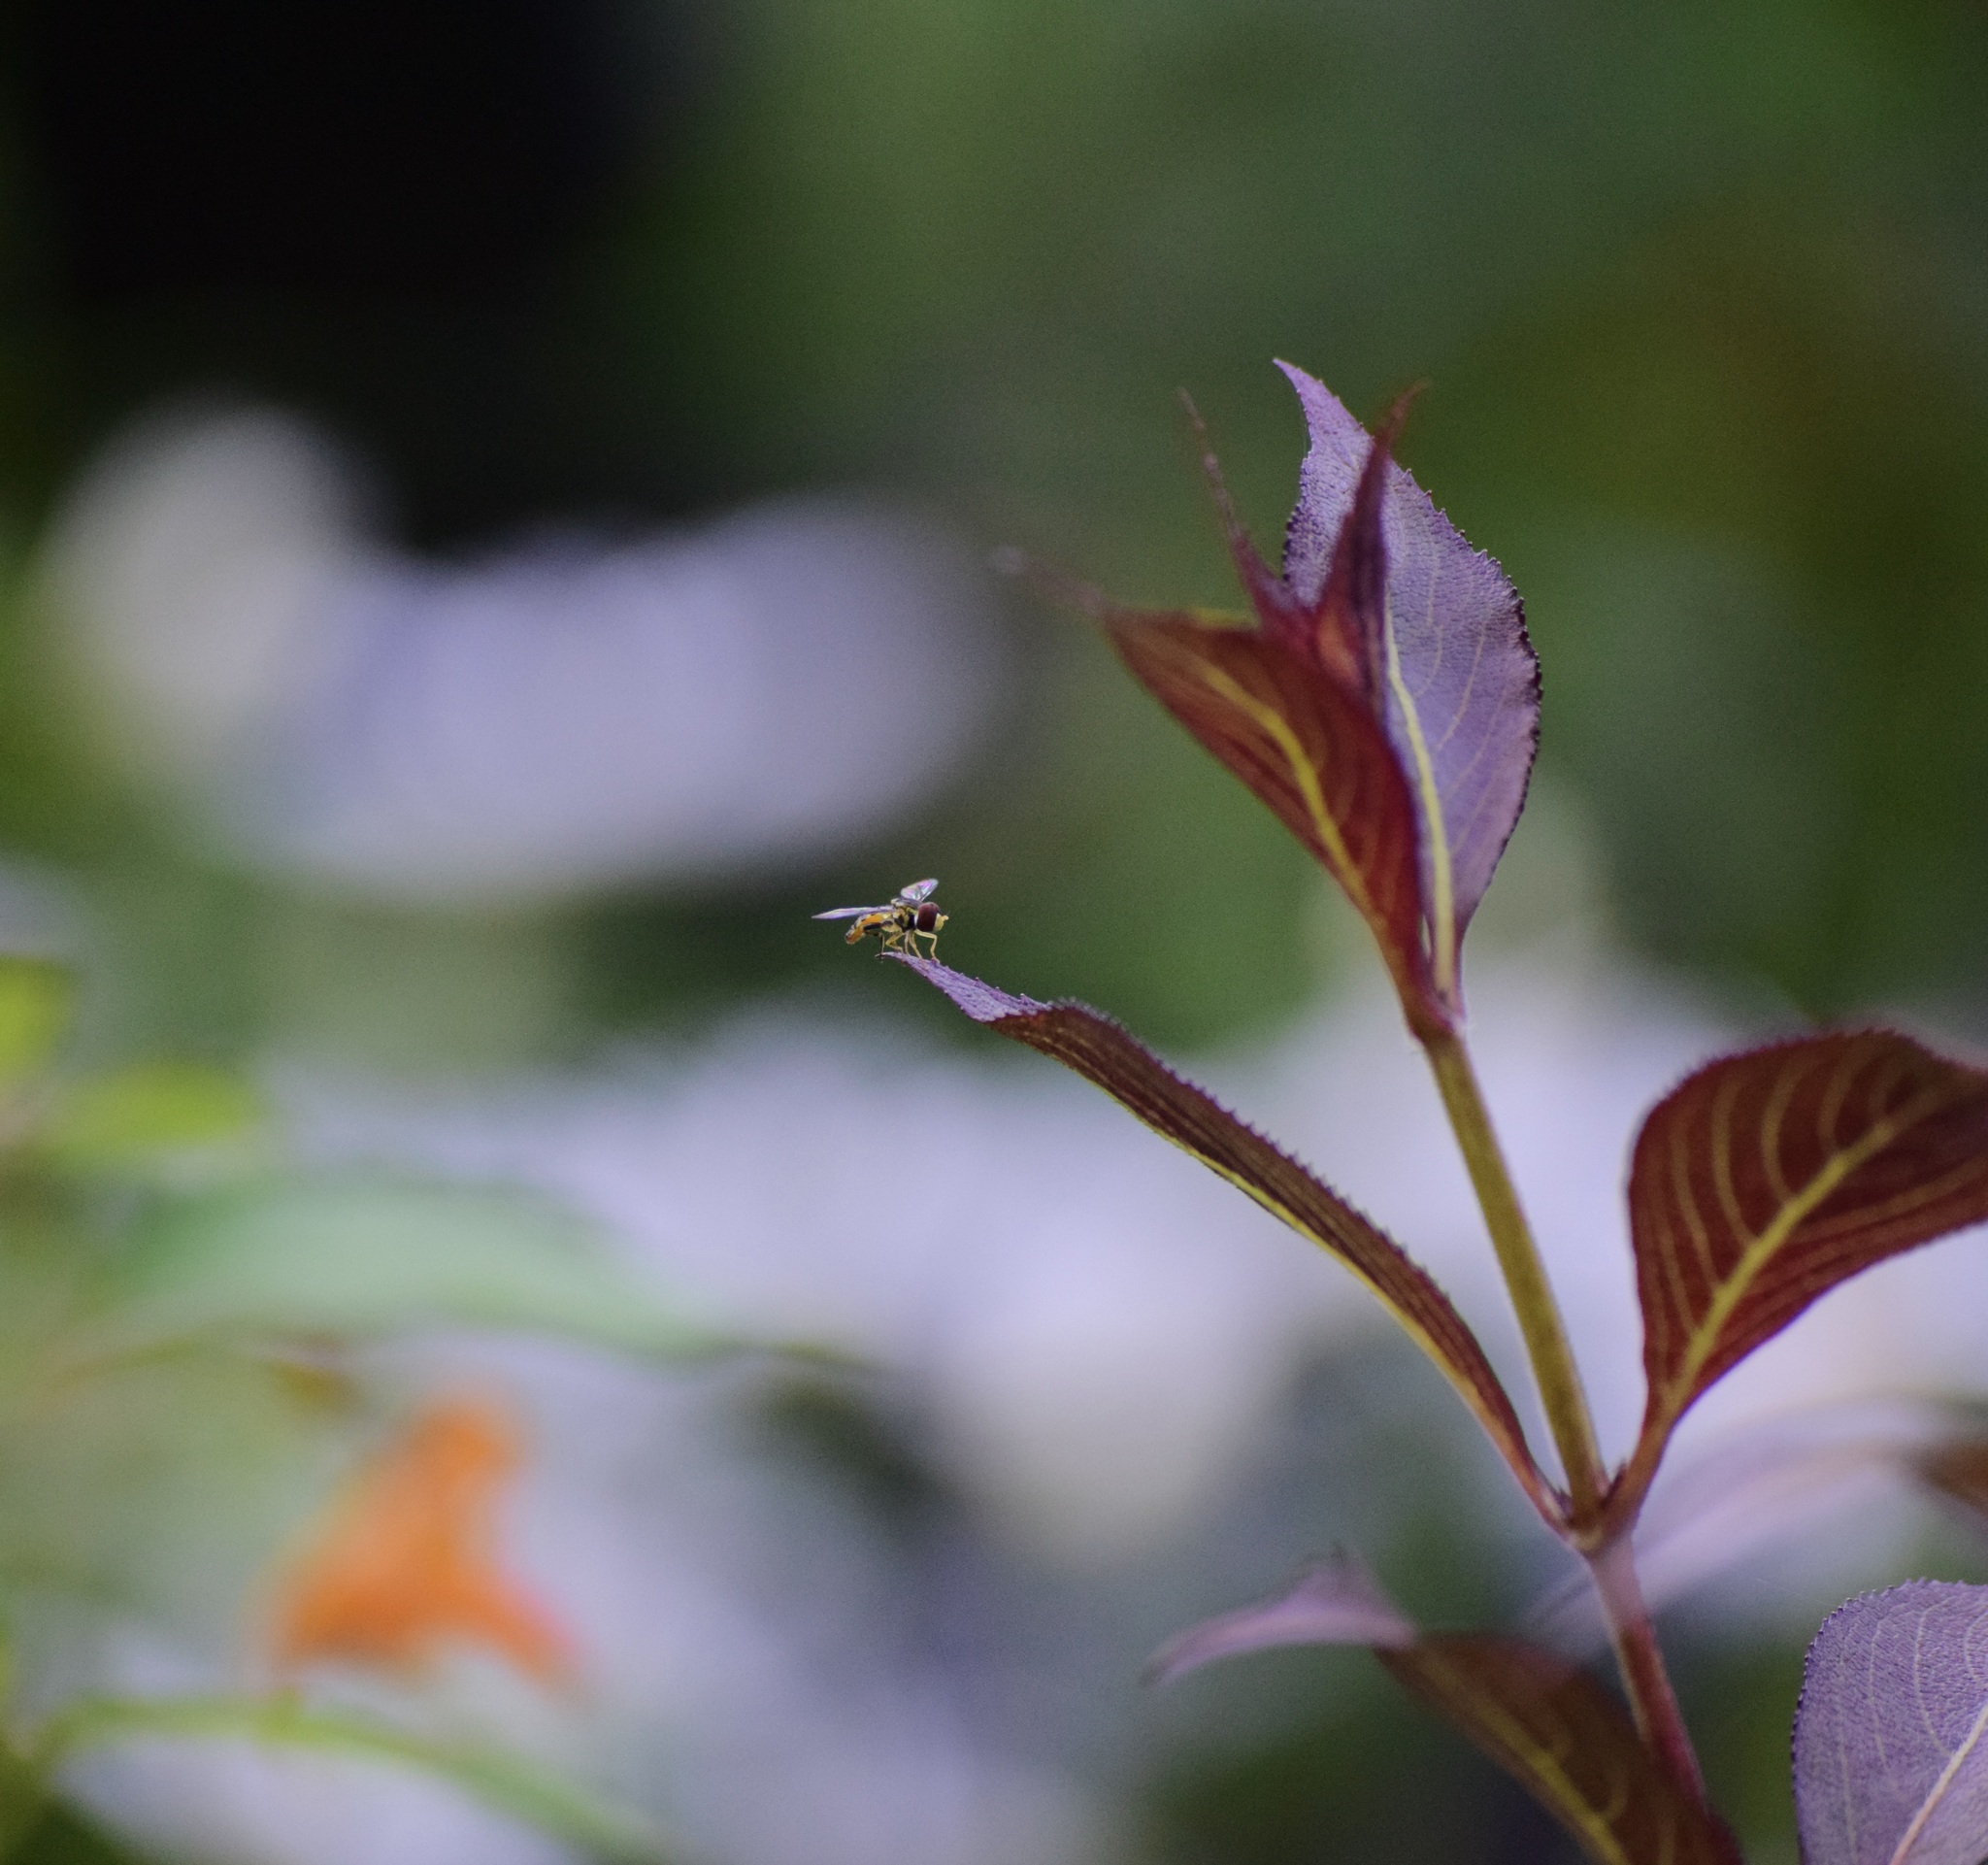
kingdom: Animalia
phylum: Arthropoda
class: Insecta
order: Diptera
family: Syrphidae
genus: Toxomerus
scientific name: Toxomerus geminatus
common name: Eastern calligrapher
